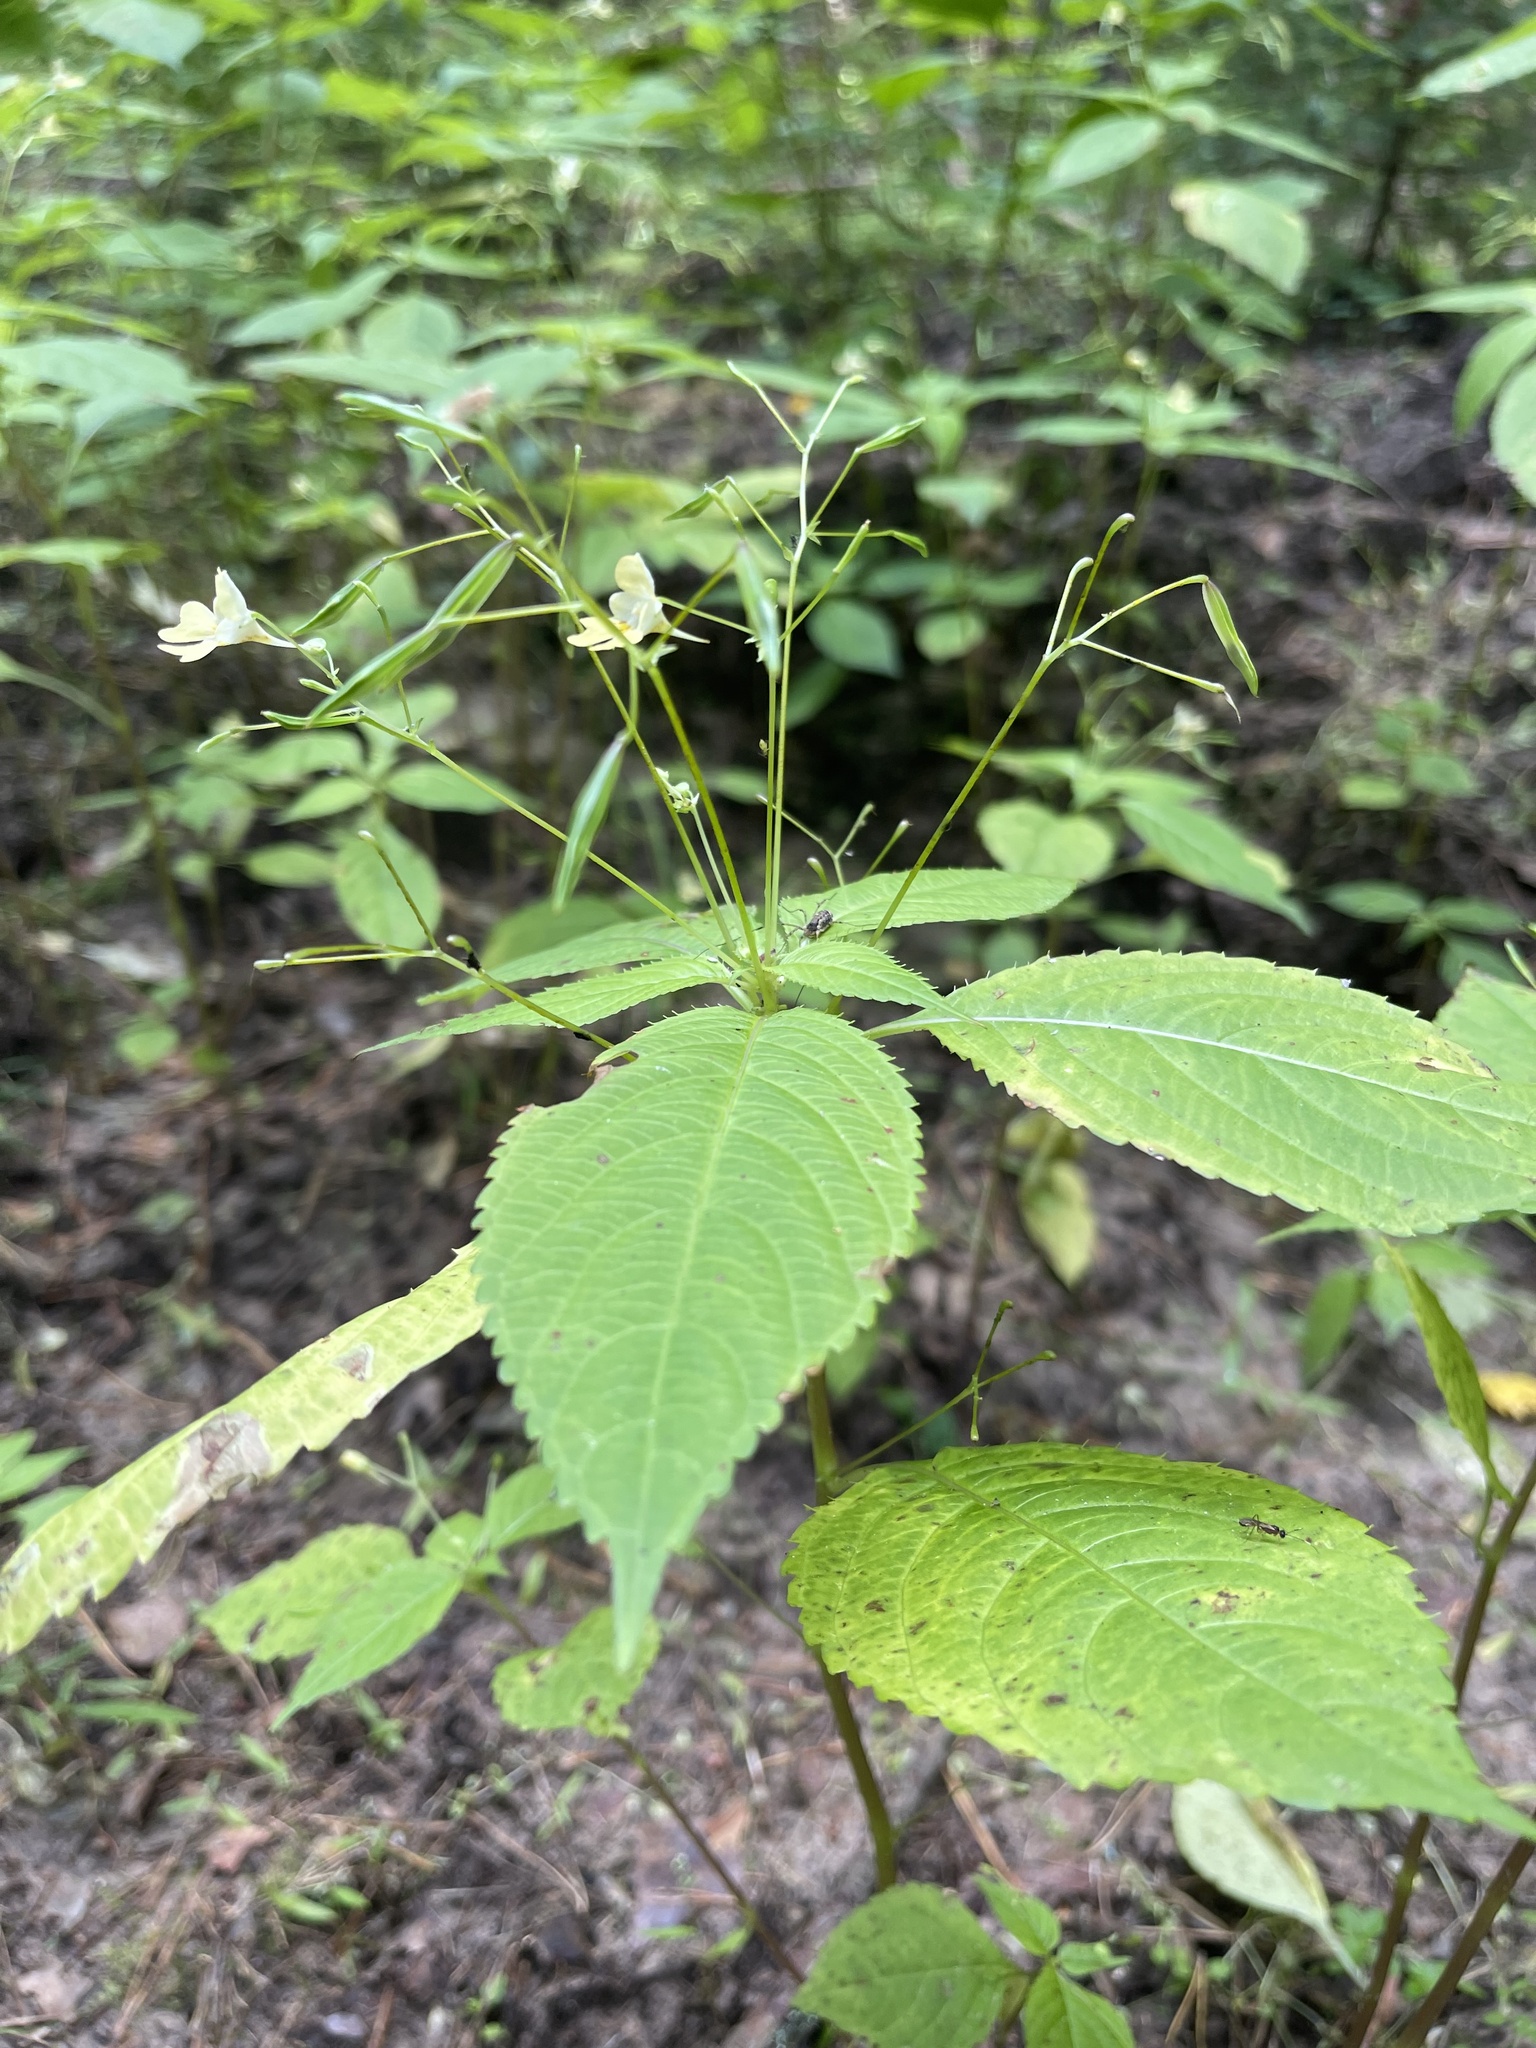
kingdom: Plantae
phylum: Tracheophyta
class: Magnoliopsida
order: Ericales
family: Balsaminaceae
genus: Impatiens
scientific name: Impatiens parviflora
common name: Small balsam
